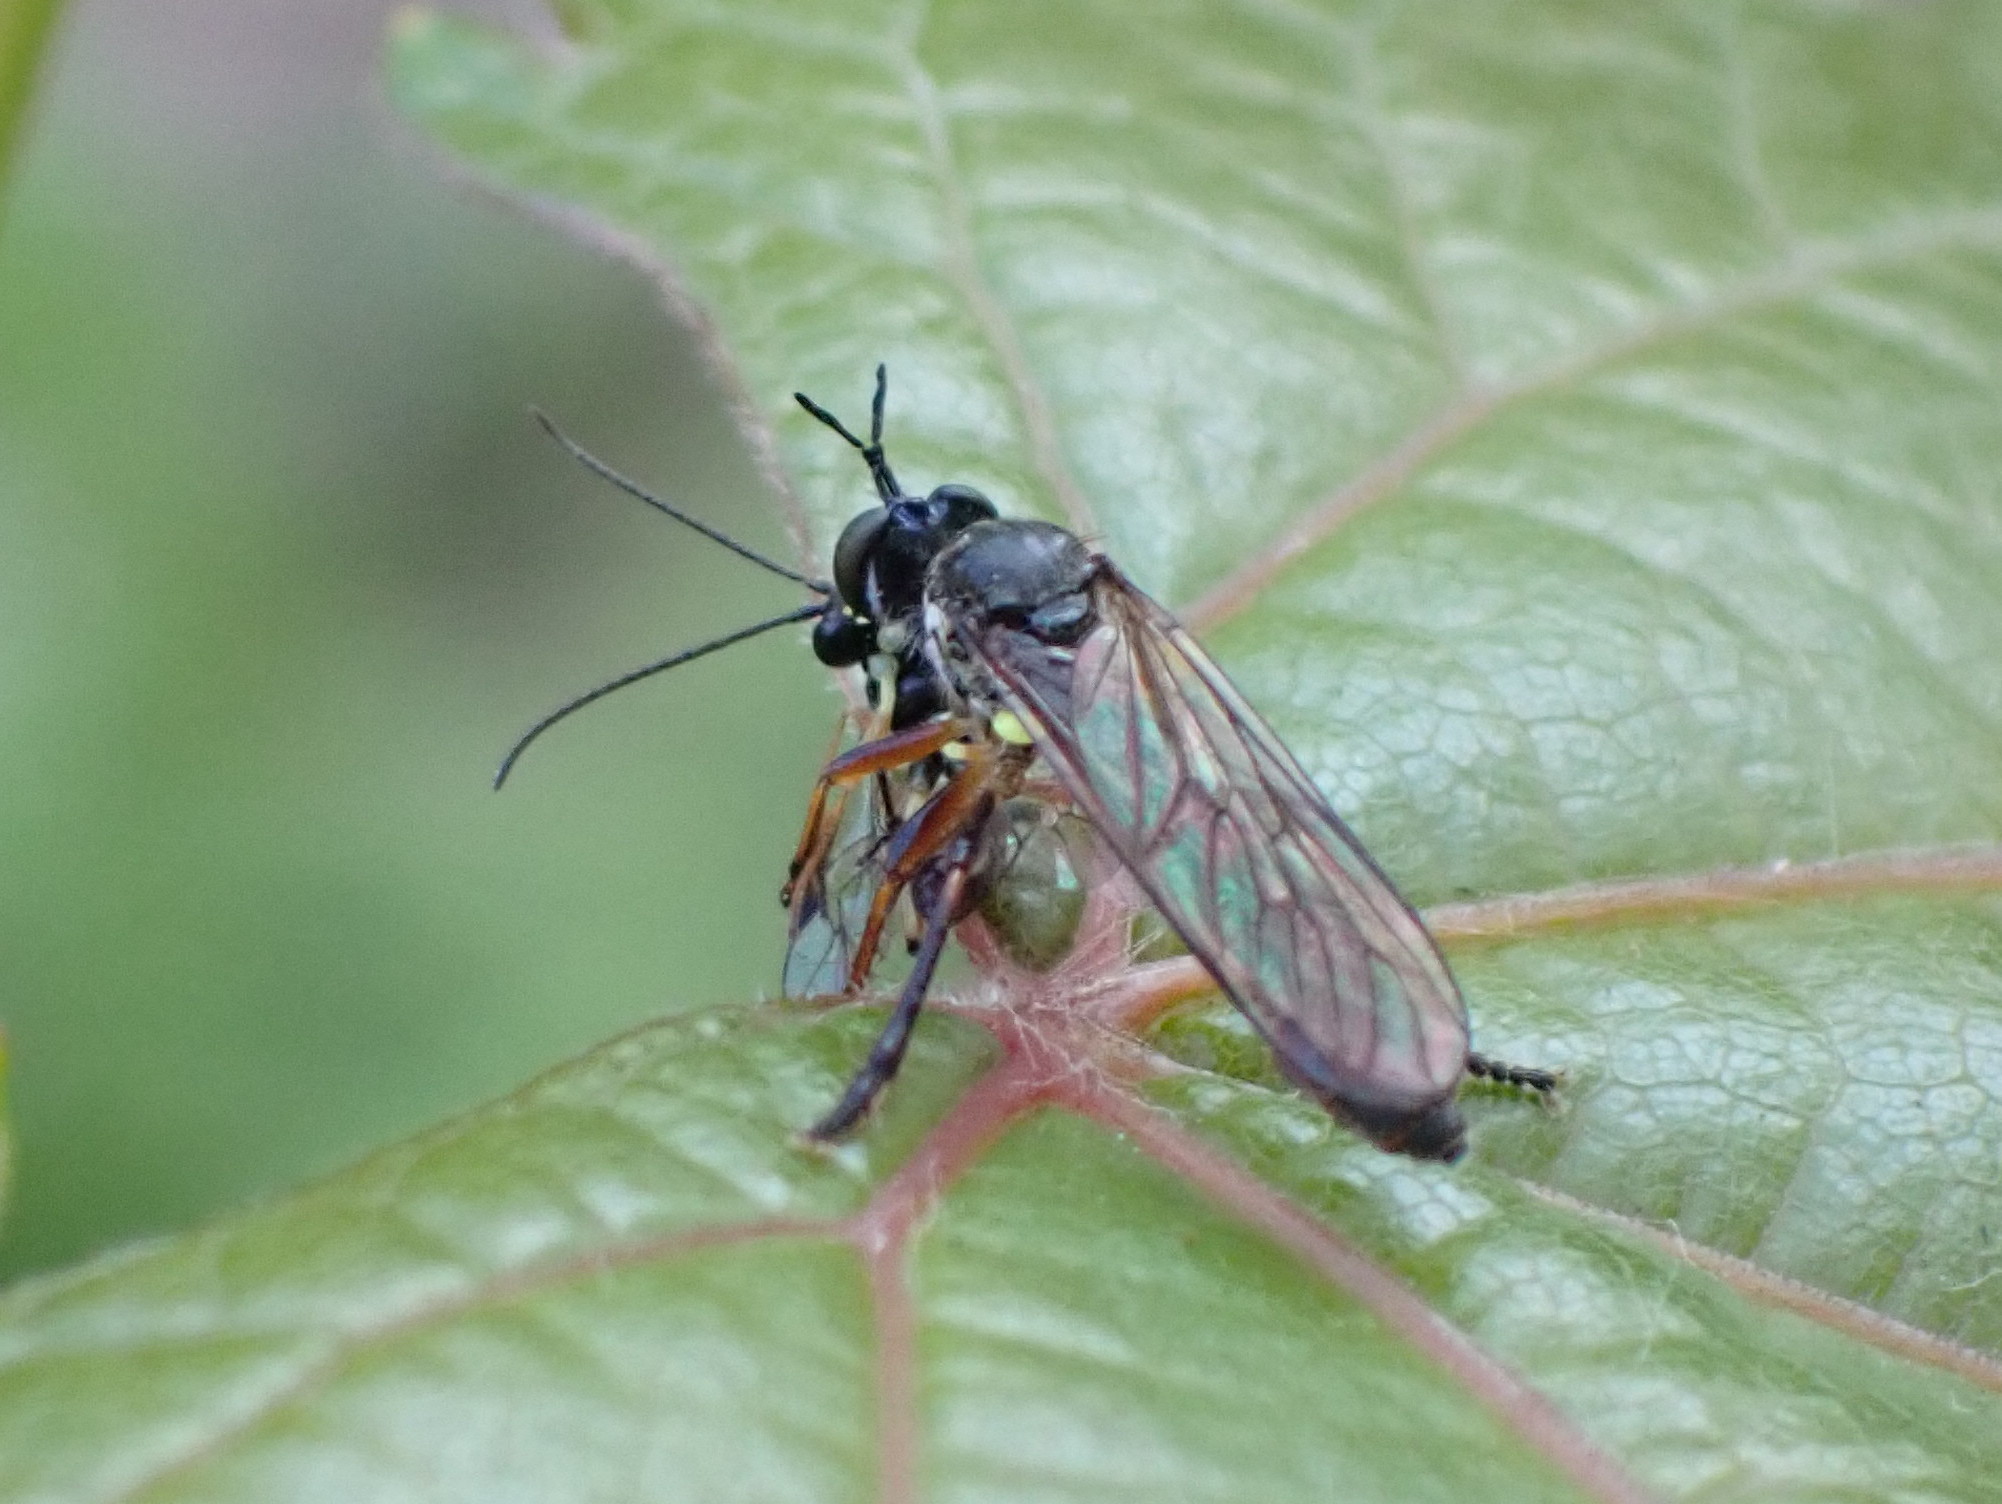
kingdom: Animalia
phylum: Arthropoda
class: Insecta
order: Diptera
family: Asilidae
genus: Dioctria
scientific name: Dioctria hyalipennis
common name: Stripe-legged robberfly
